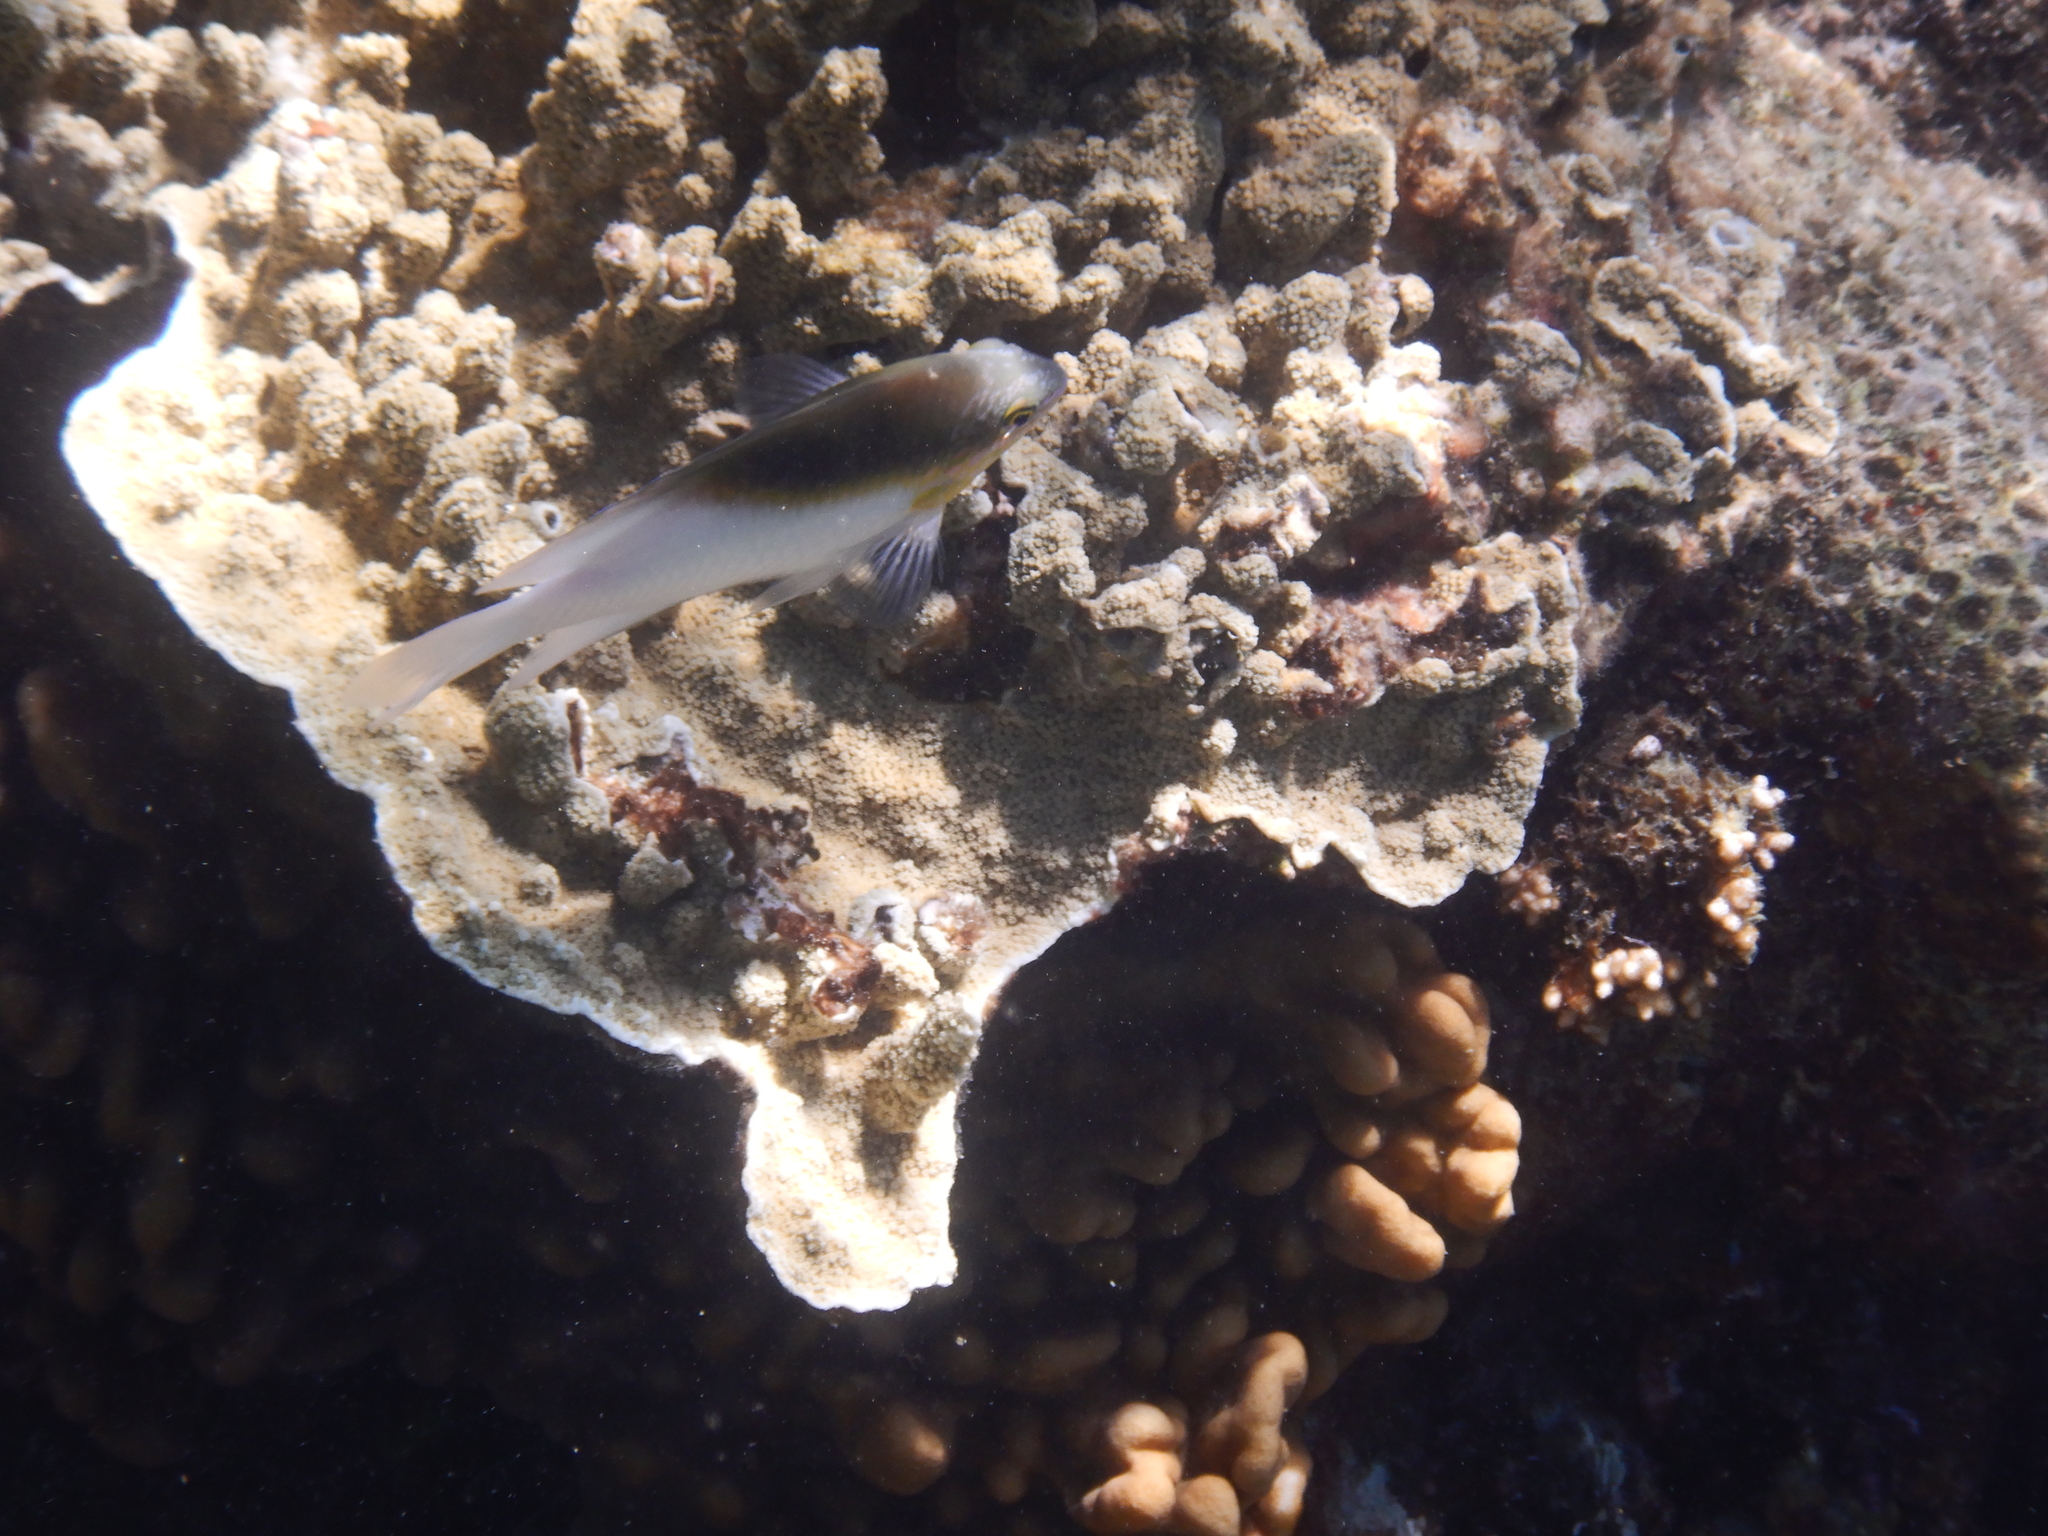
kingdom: Animalia
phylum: Chordata
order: Perciformes
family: Pomacentridae
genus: Dischistodus
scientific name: Dischistodus melanotus
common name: Black-vent damsel
